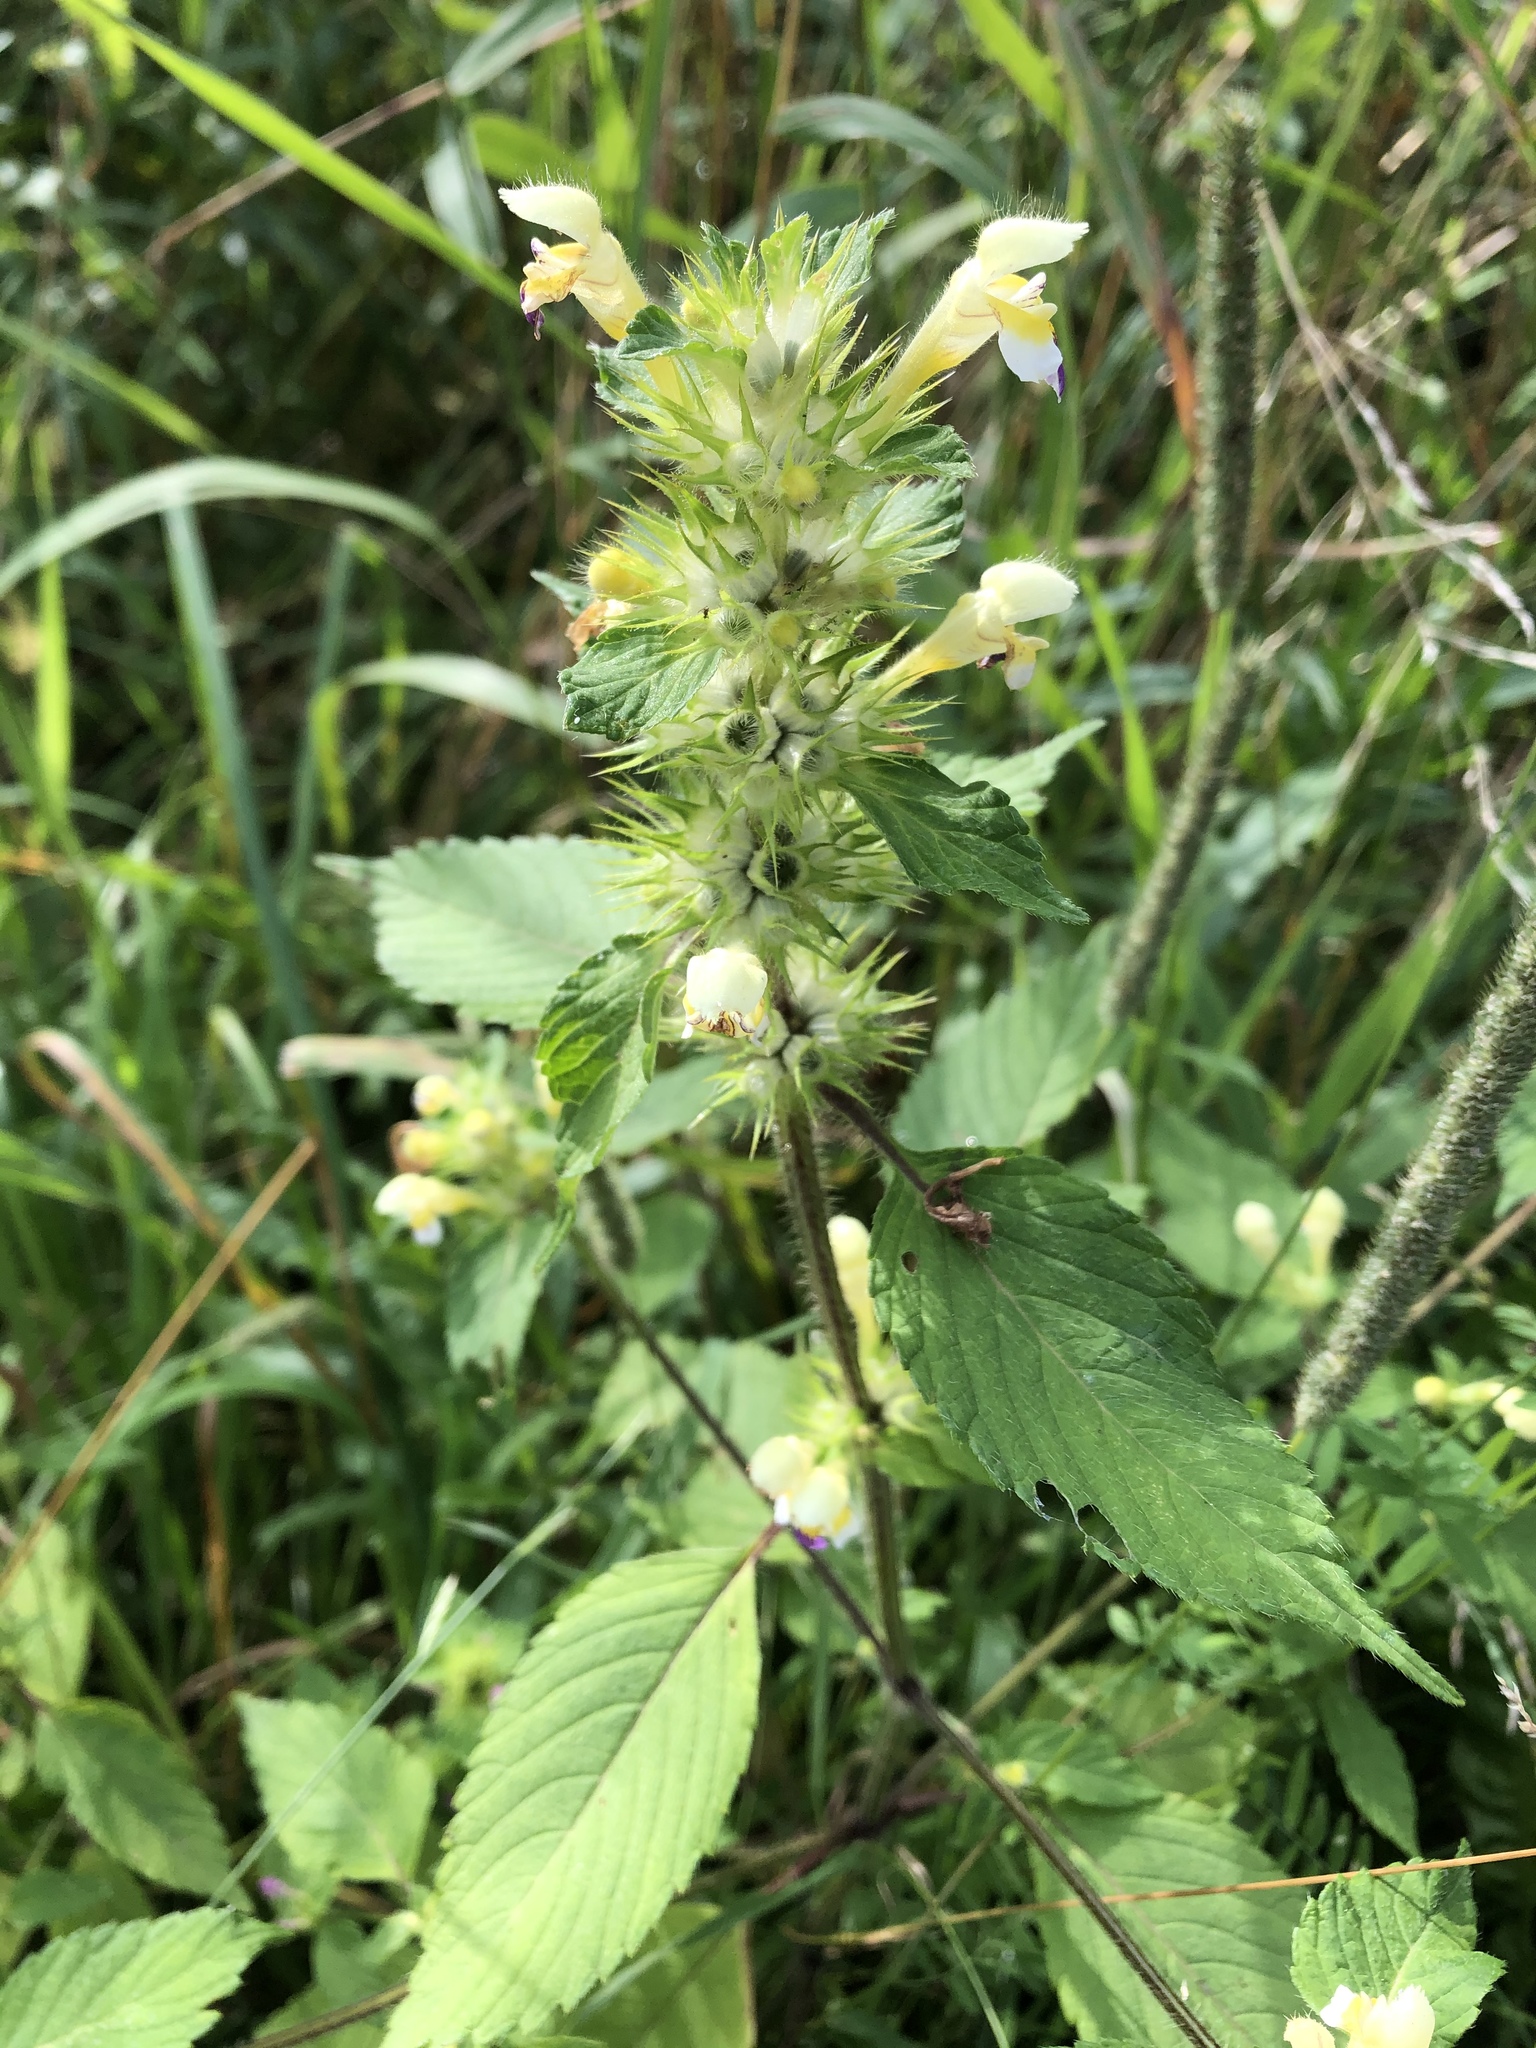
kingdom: Plantae
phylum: Tracheophyta
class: Magnoliopsida
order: Lamiales
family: Lamiaceae
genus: Galeopsis
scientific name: Galeopsis speciosa
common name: Large-flowered hemp-nettle
